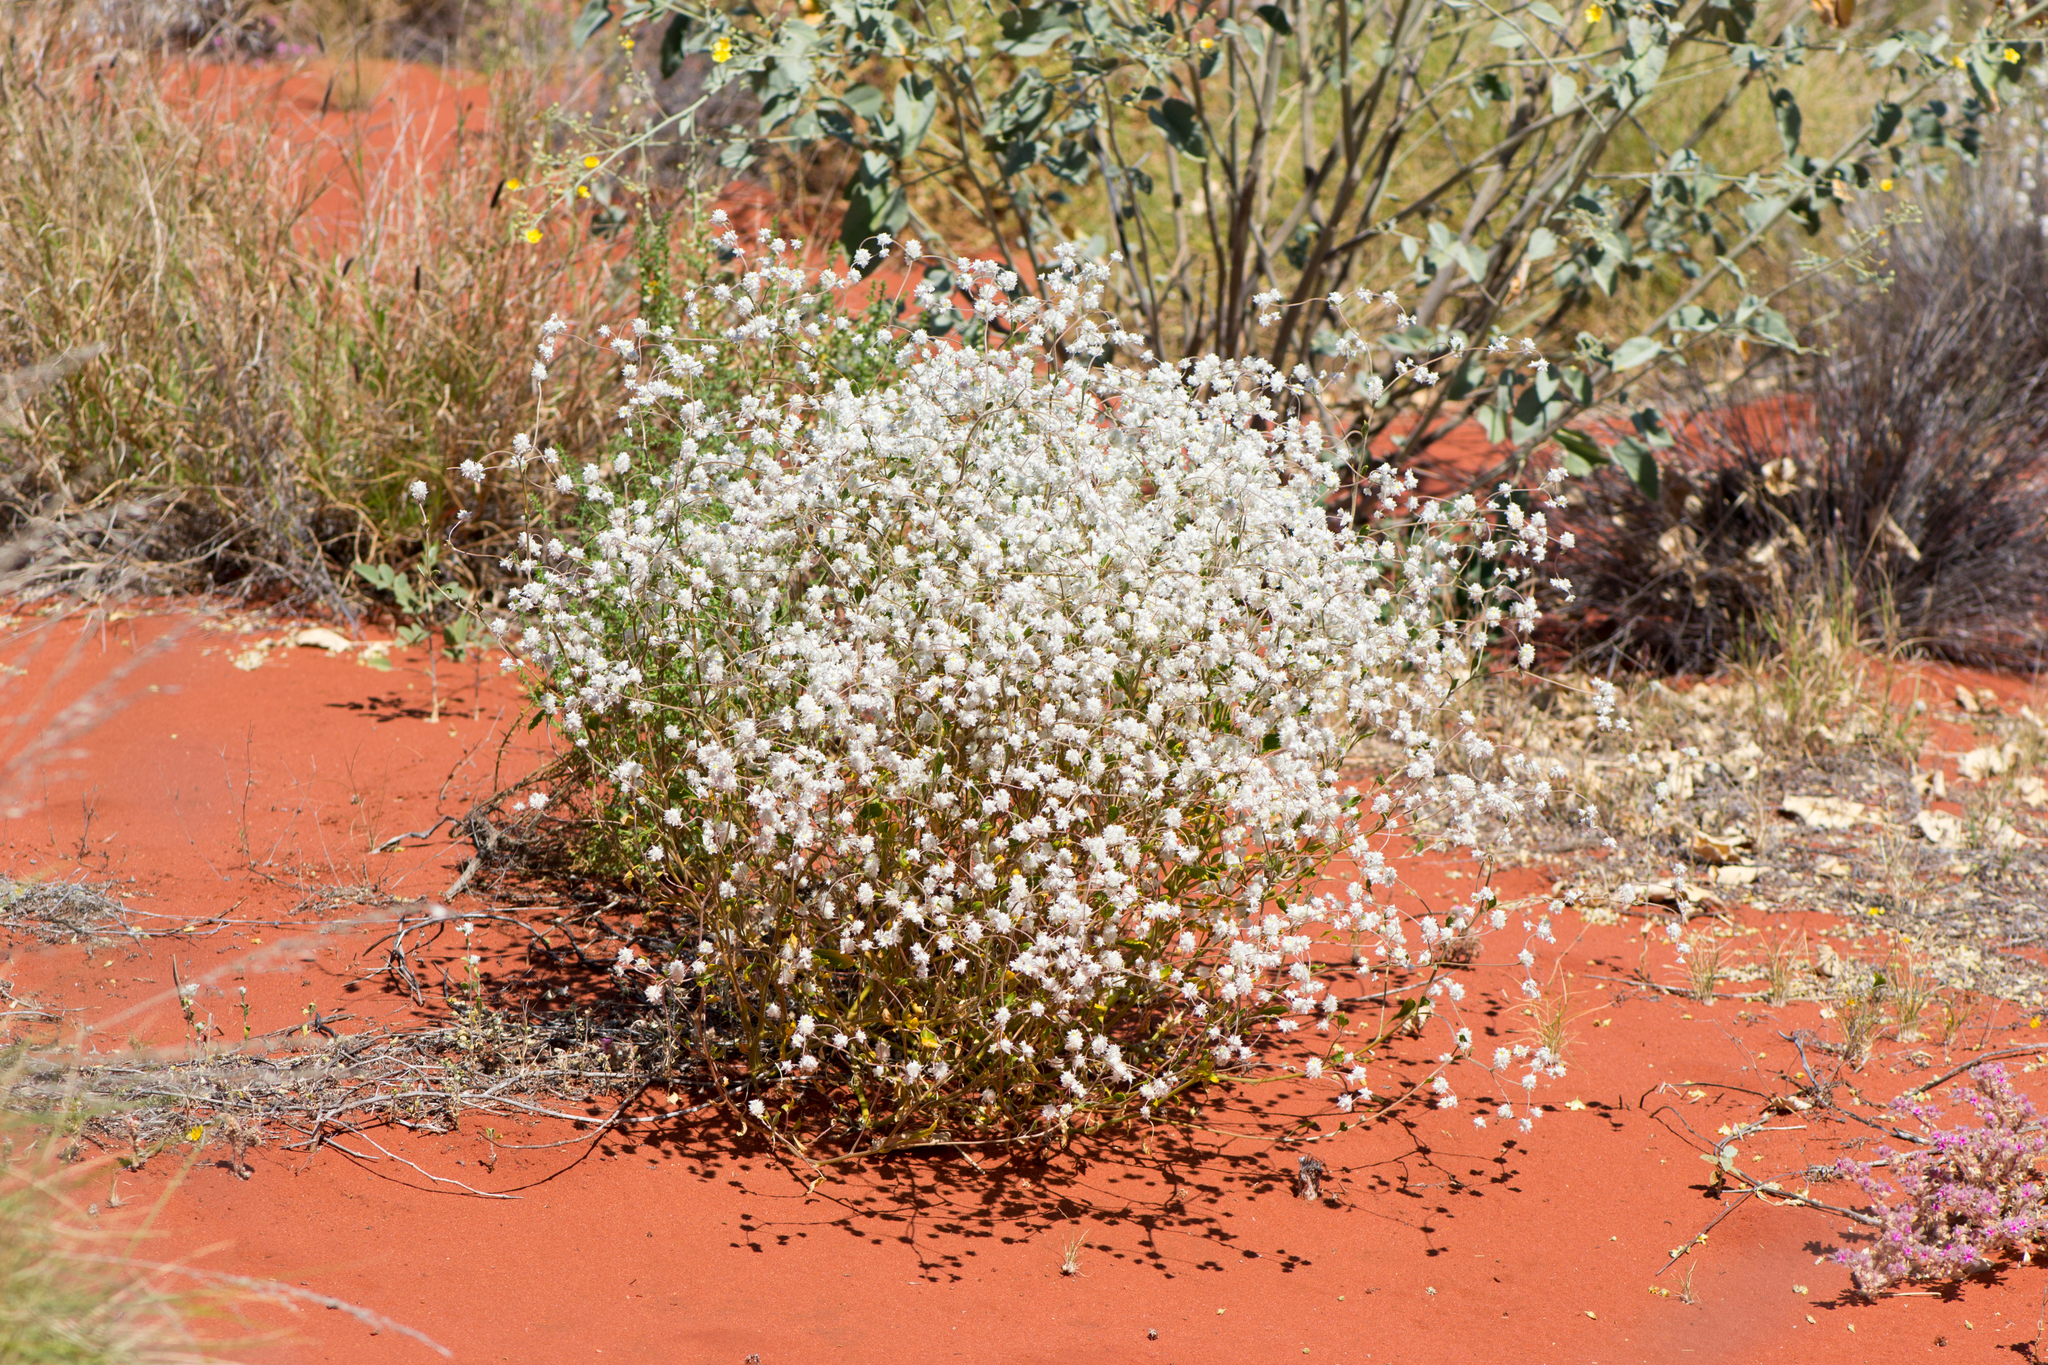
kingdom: Plantae
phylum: Tracheophyta
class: Magnoliopsida
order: Caryophyllales
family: Amaranthaceae
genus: Ptilotus
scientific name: Ptilotus latifolius
